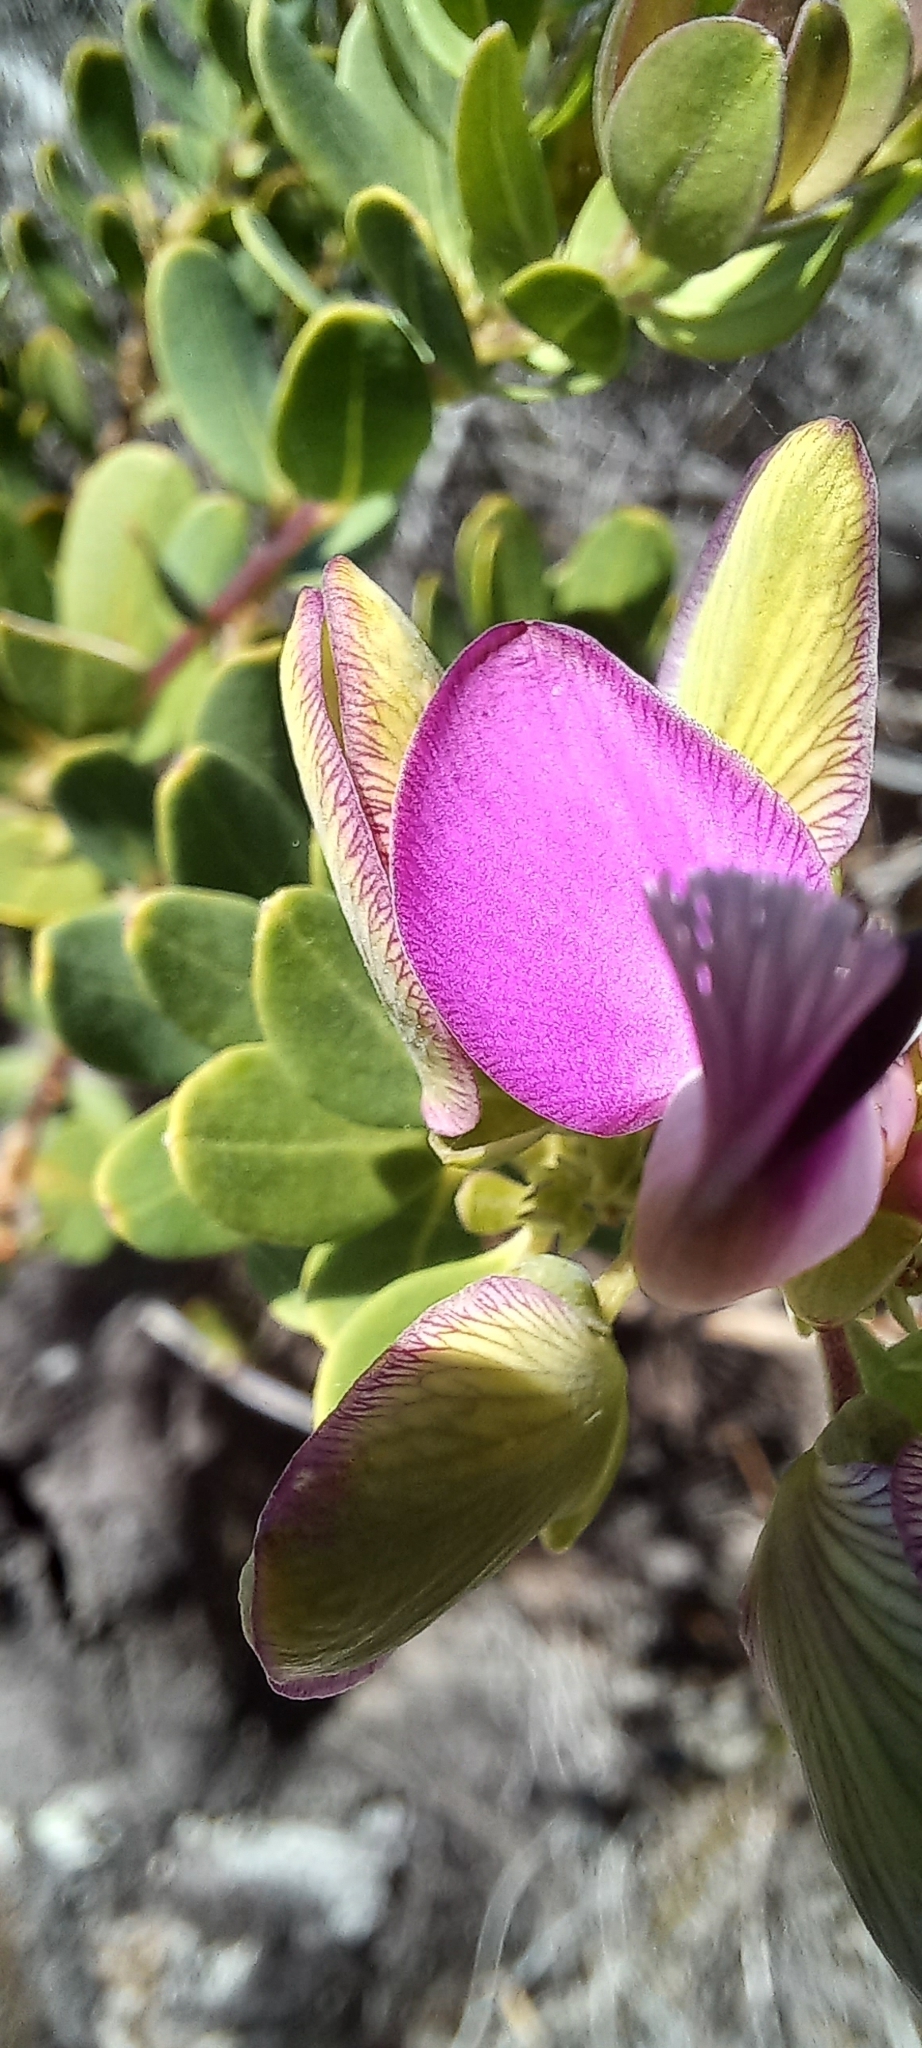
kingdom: Plantae
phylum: Tracheophyta
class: Magnoliopsida
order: Fabales
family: Polygalaceae
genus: Polygala
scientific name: Polygala myrtifolia
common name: Myrtle-leaf milkwort
